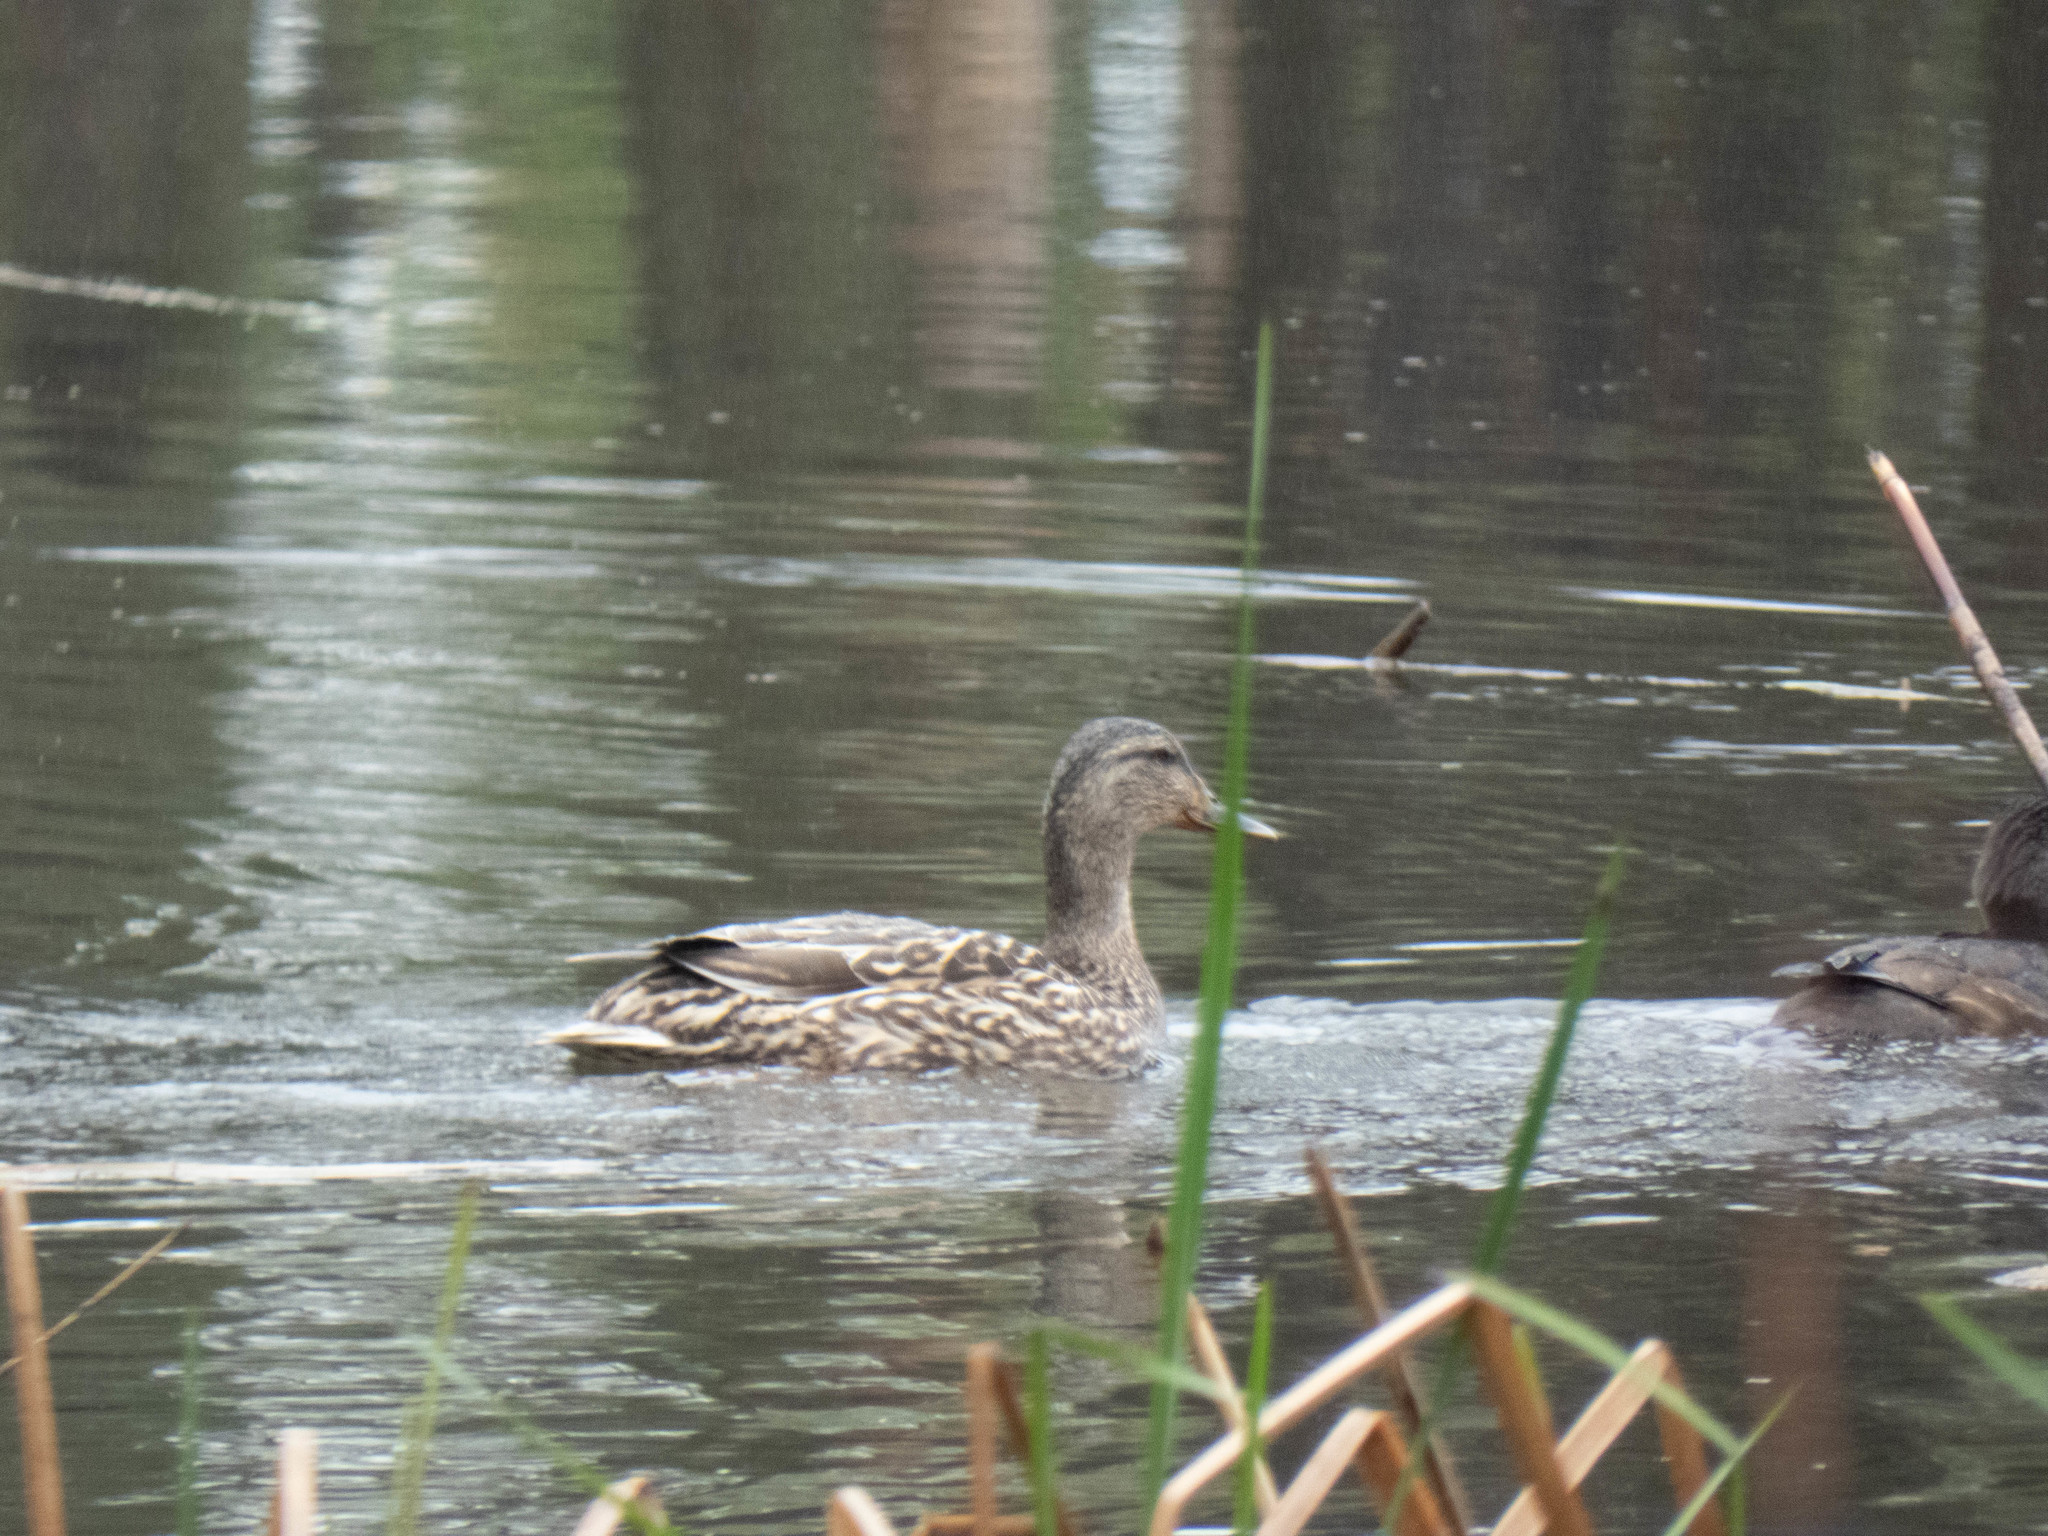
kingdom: Animalia
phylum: Chordata
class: Aves
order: Anseriformes
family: Anatidae
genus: Anas
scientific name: Anas platyrhynchos
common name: Mallard
